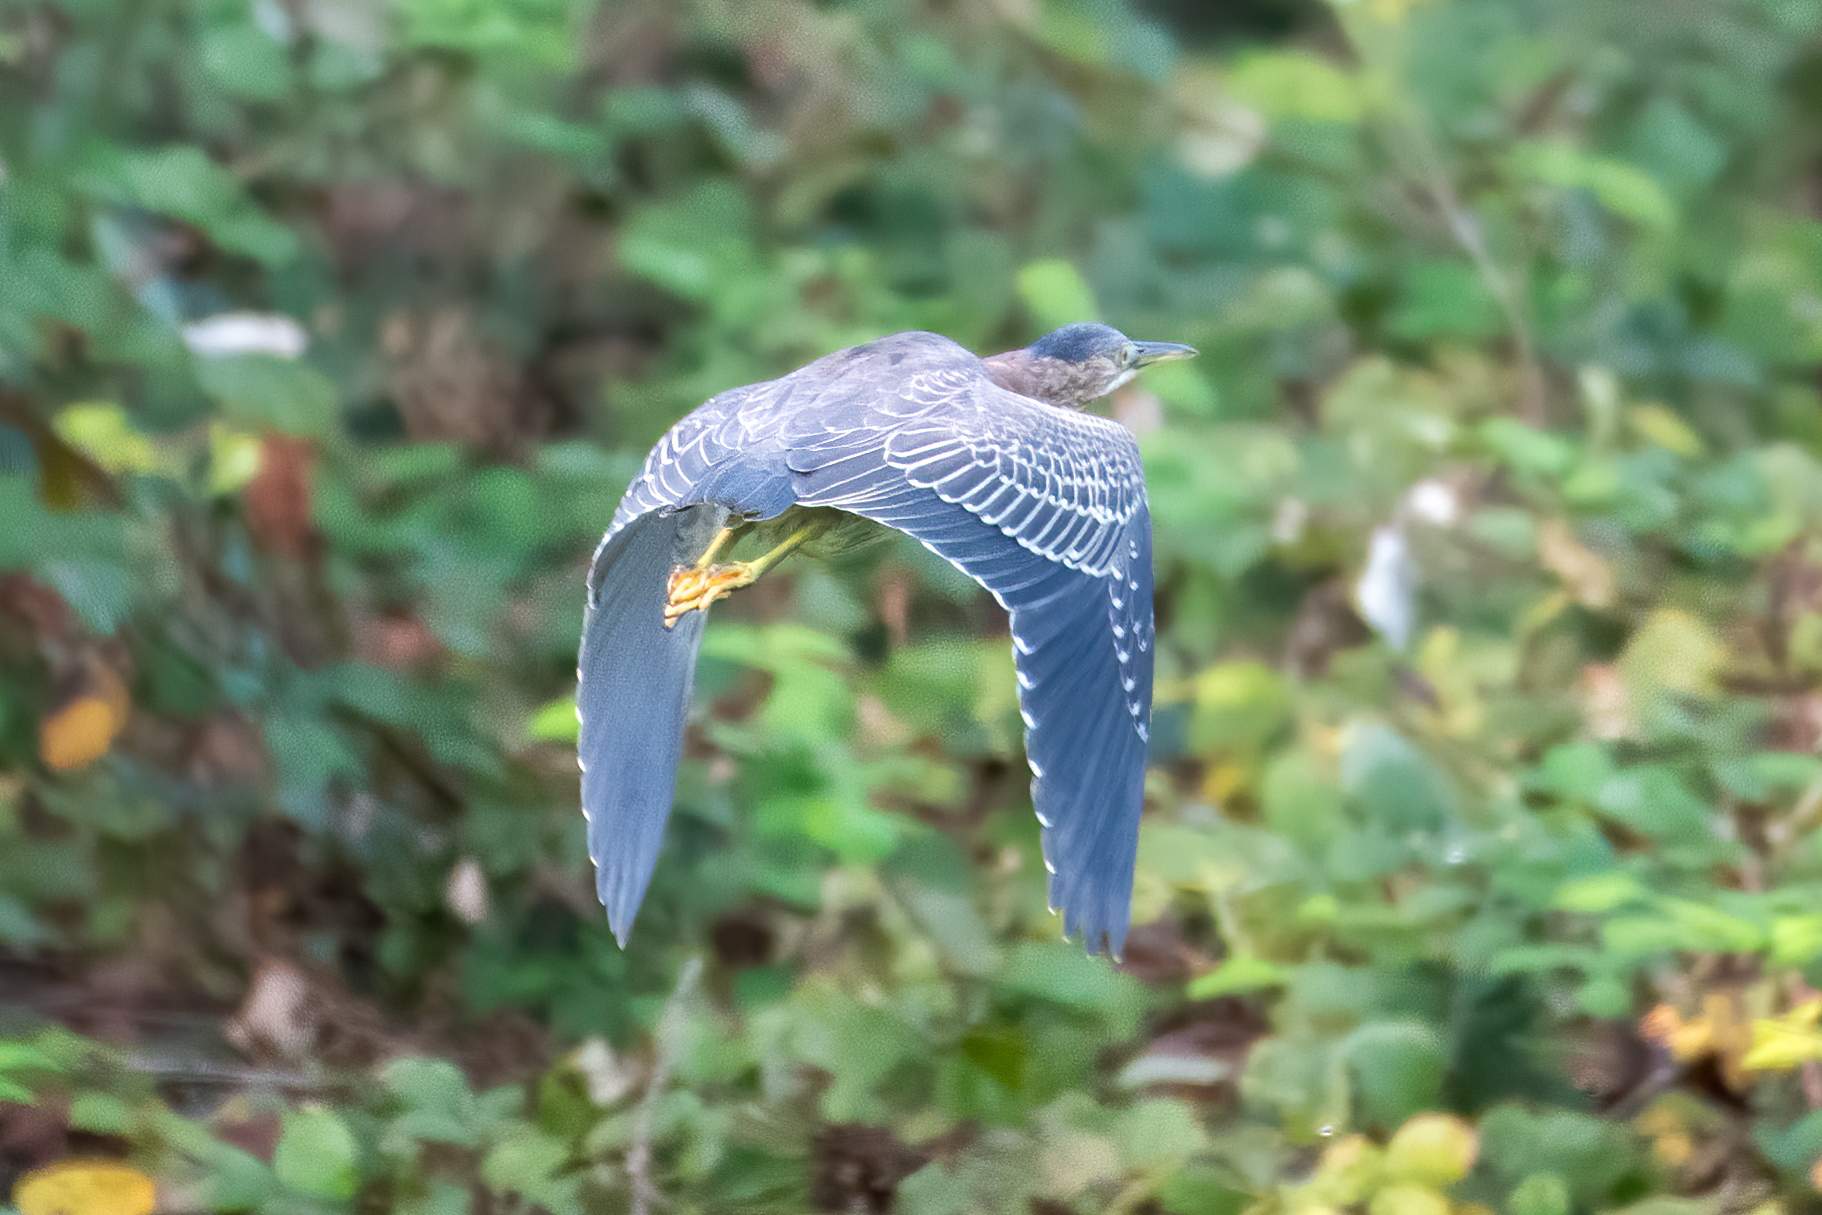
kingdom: Animalia
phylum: Chordata
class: Aves
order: Pelecaniformes
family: Ardeidae
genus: Butorides
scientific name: Butorides virescens
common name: Green heron
